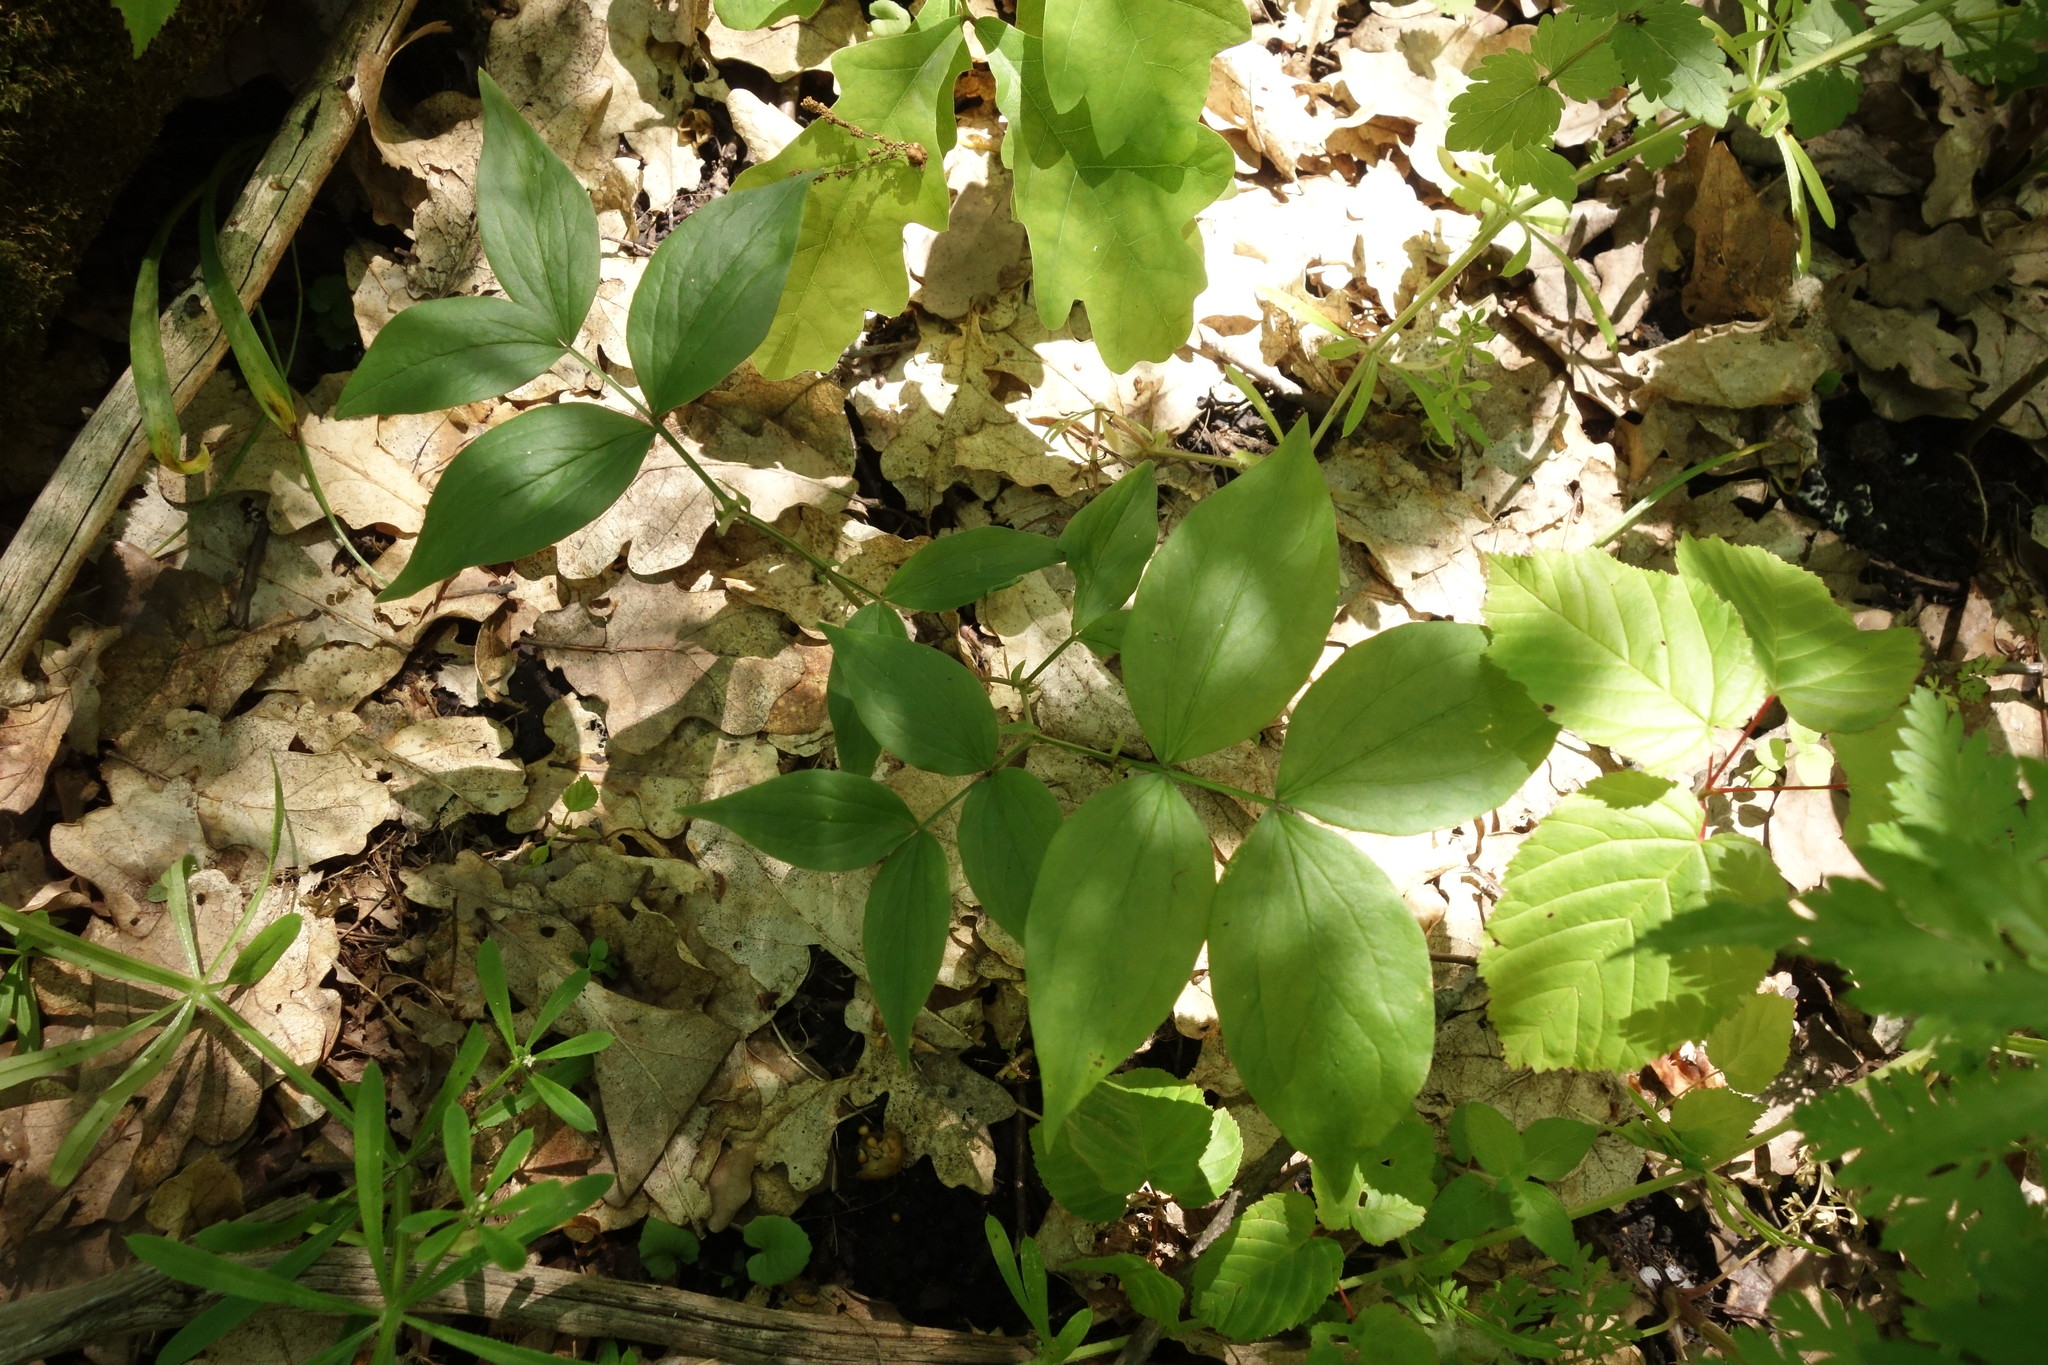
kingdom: Plantae
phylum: Tracheophyta
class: Magnoliopsida
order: Fabales
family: Fabaceae
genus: Lathyrus
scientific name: Lathyrus vernus
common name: Spring pea
